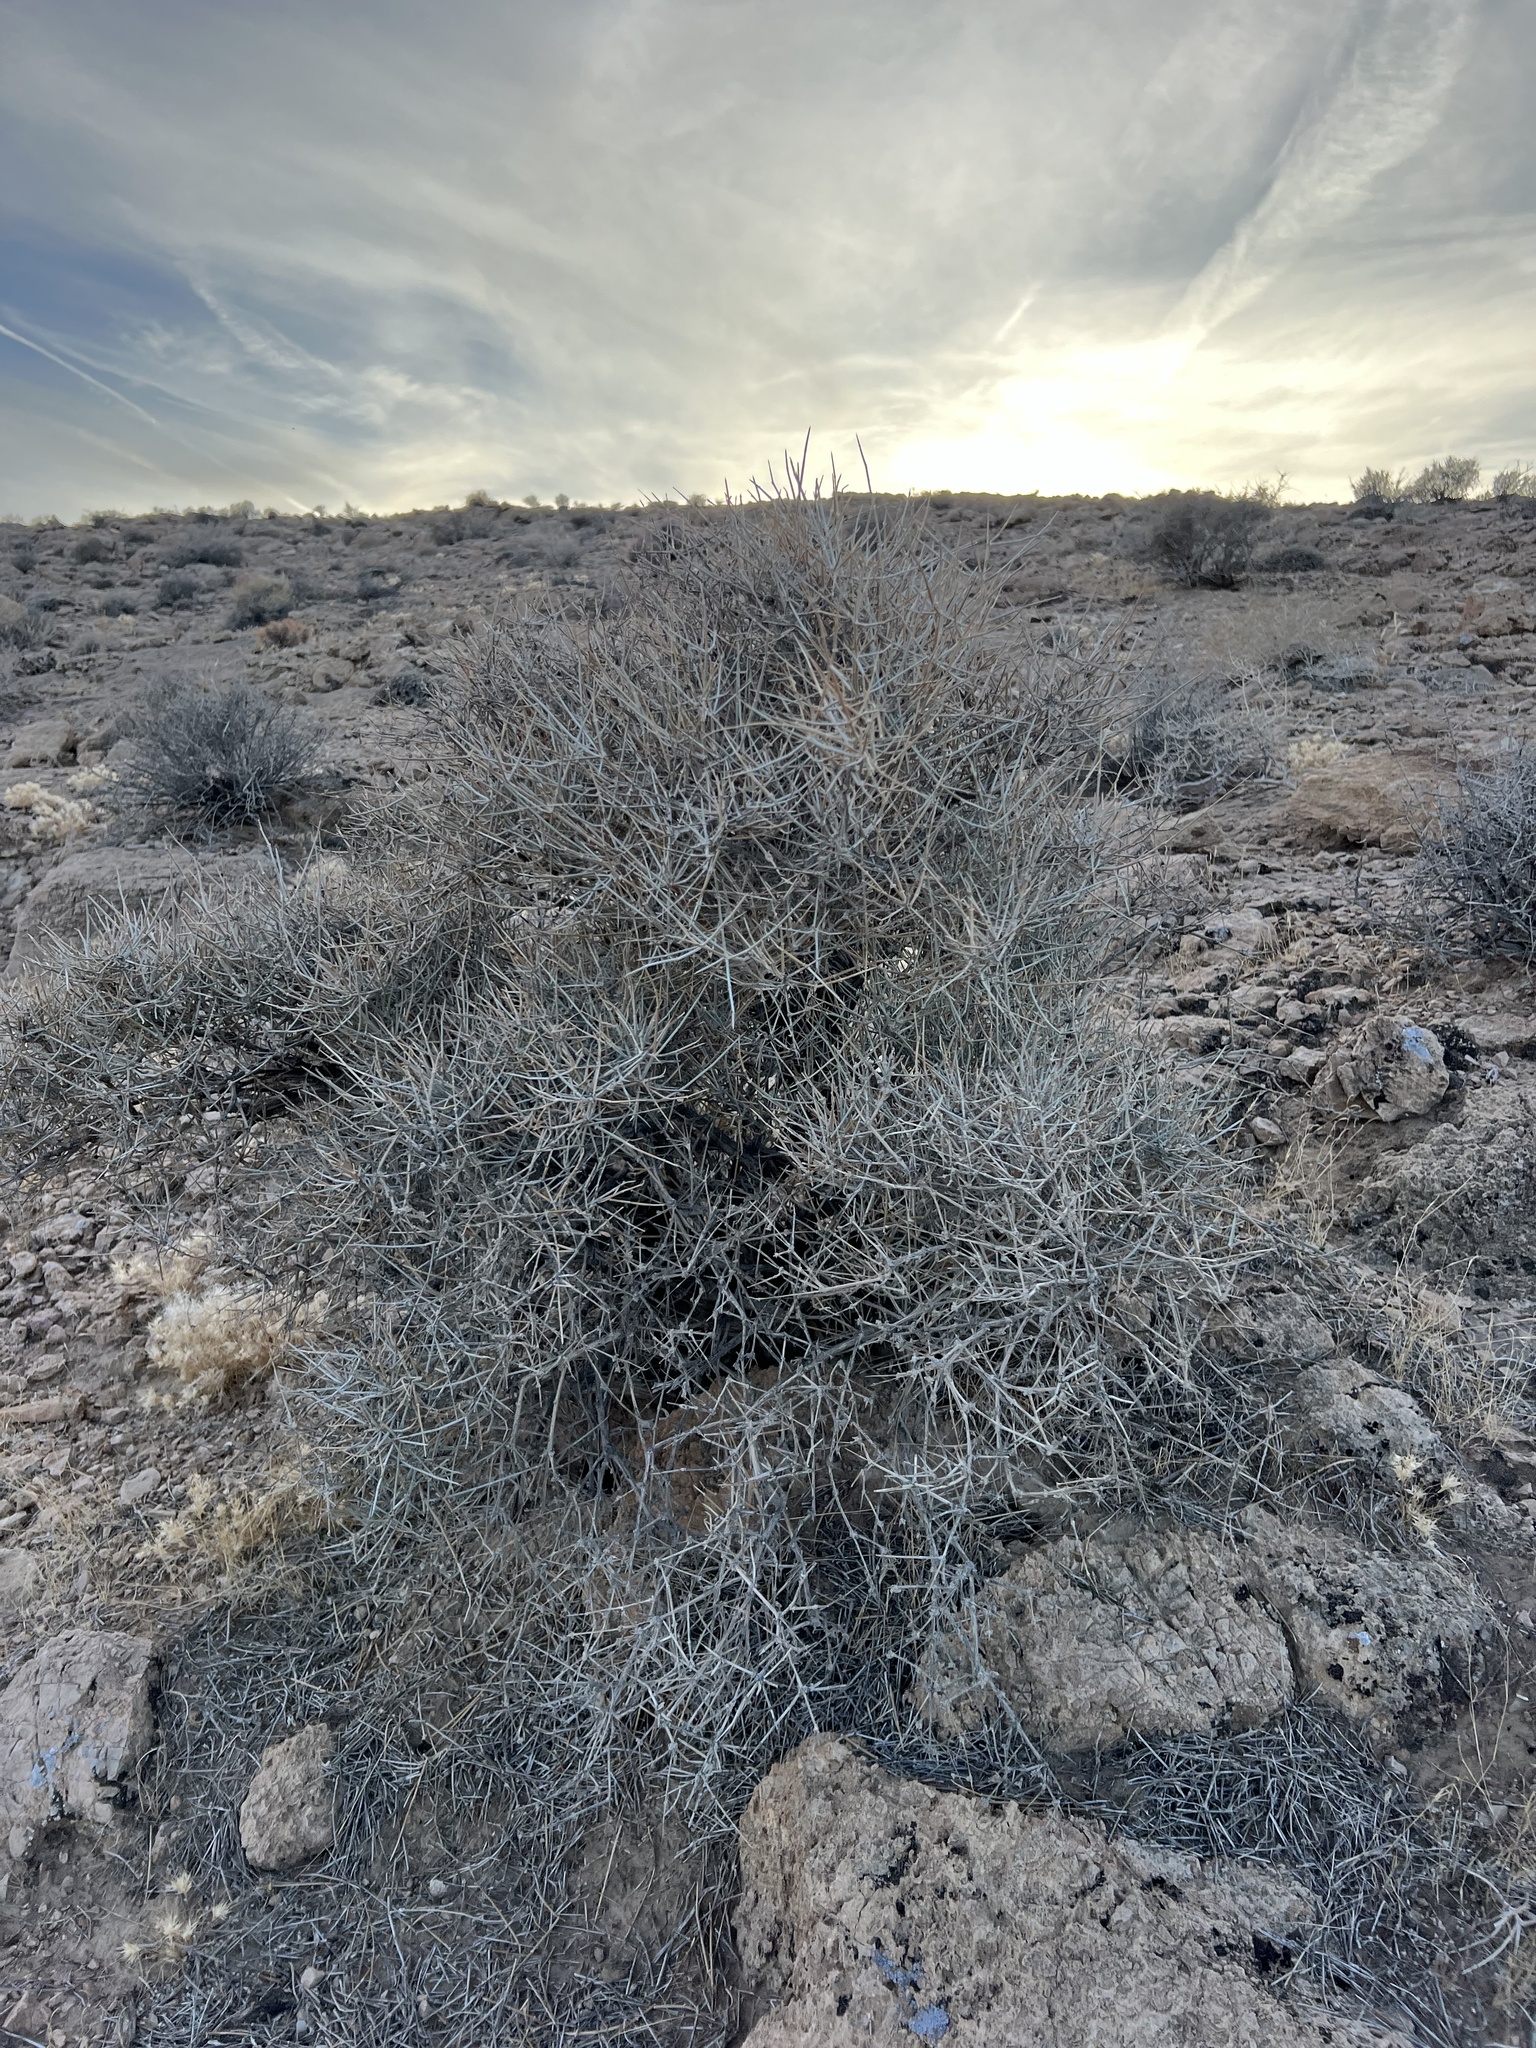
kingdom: Plantae
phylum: Tracheophyta
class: Gnetopsida
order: Ephedrales
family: Ephedraceae
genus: Ephedra
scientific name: Ephedra nevadensis
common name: Gray ephedra
